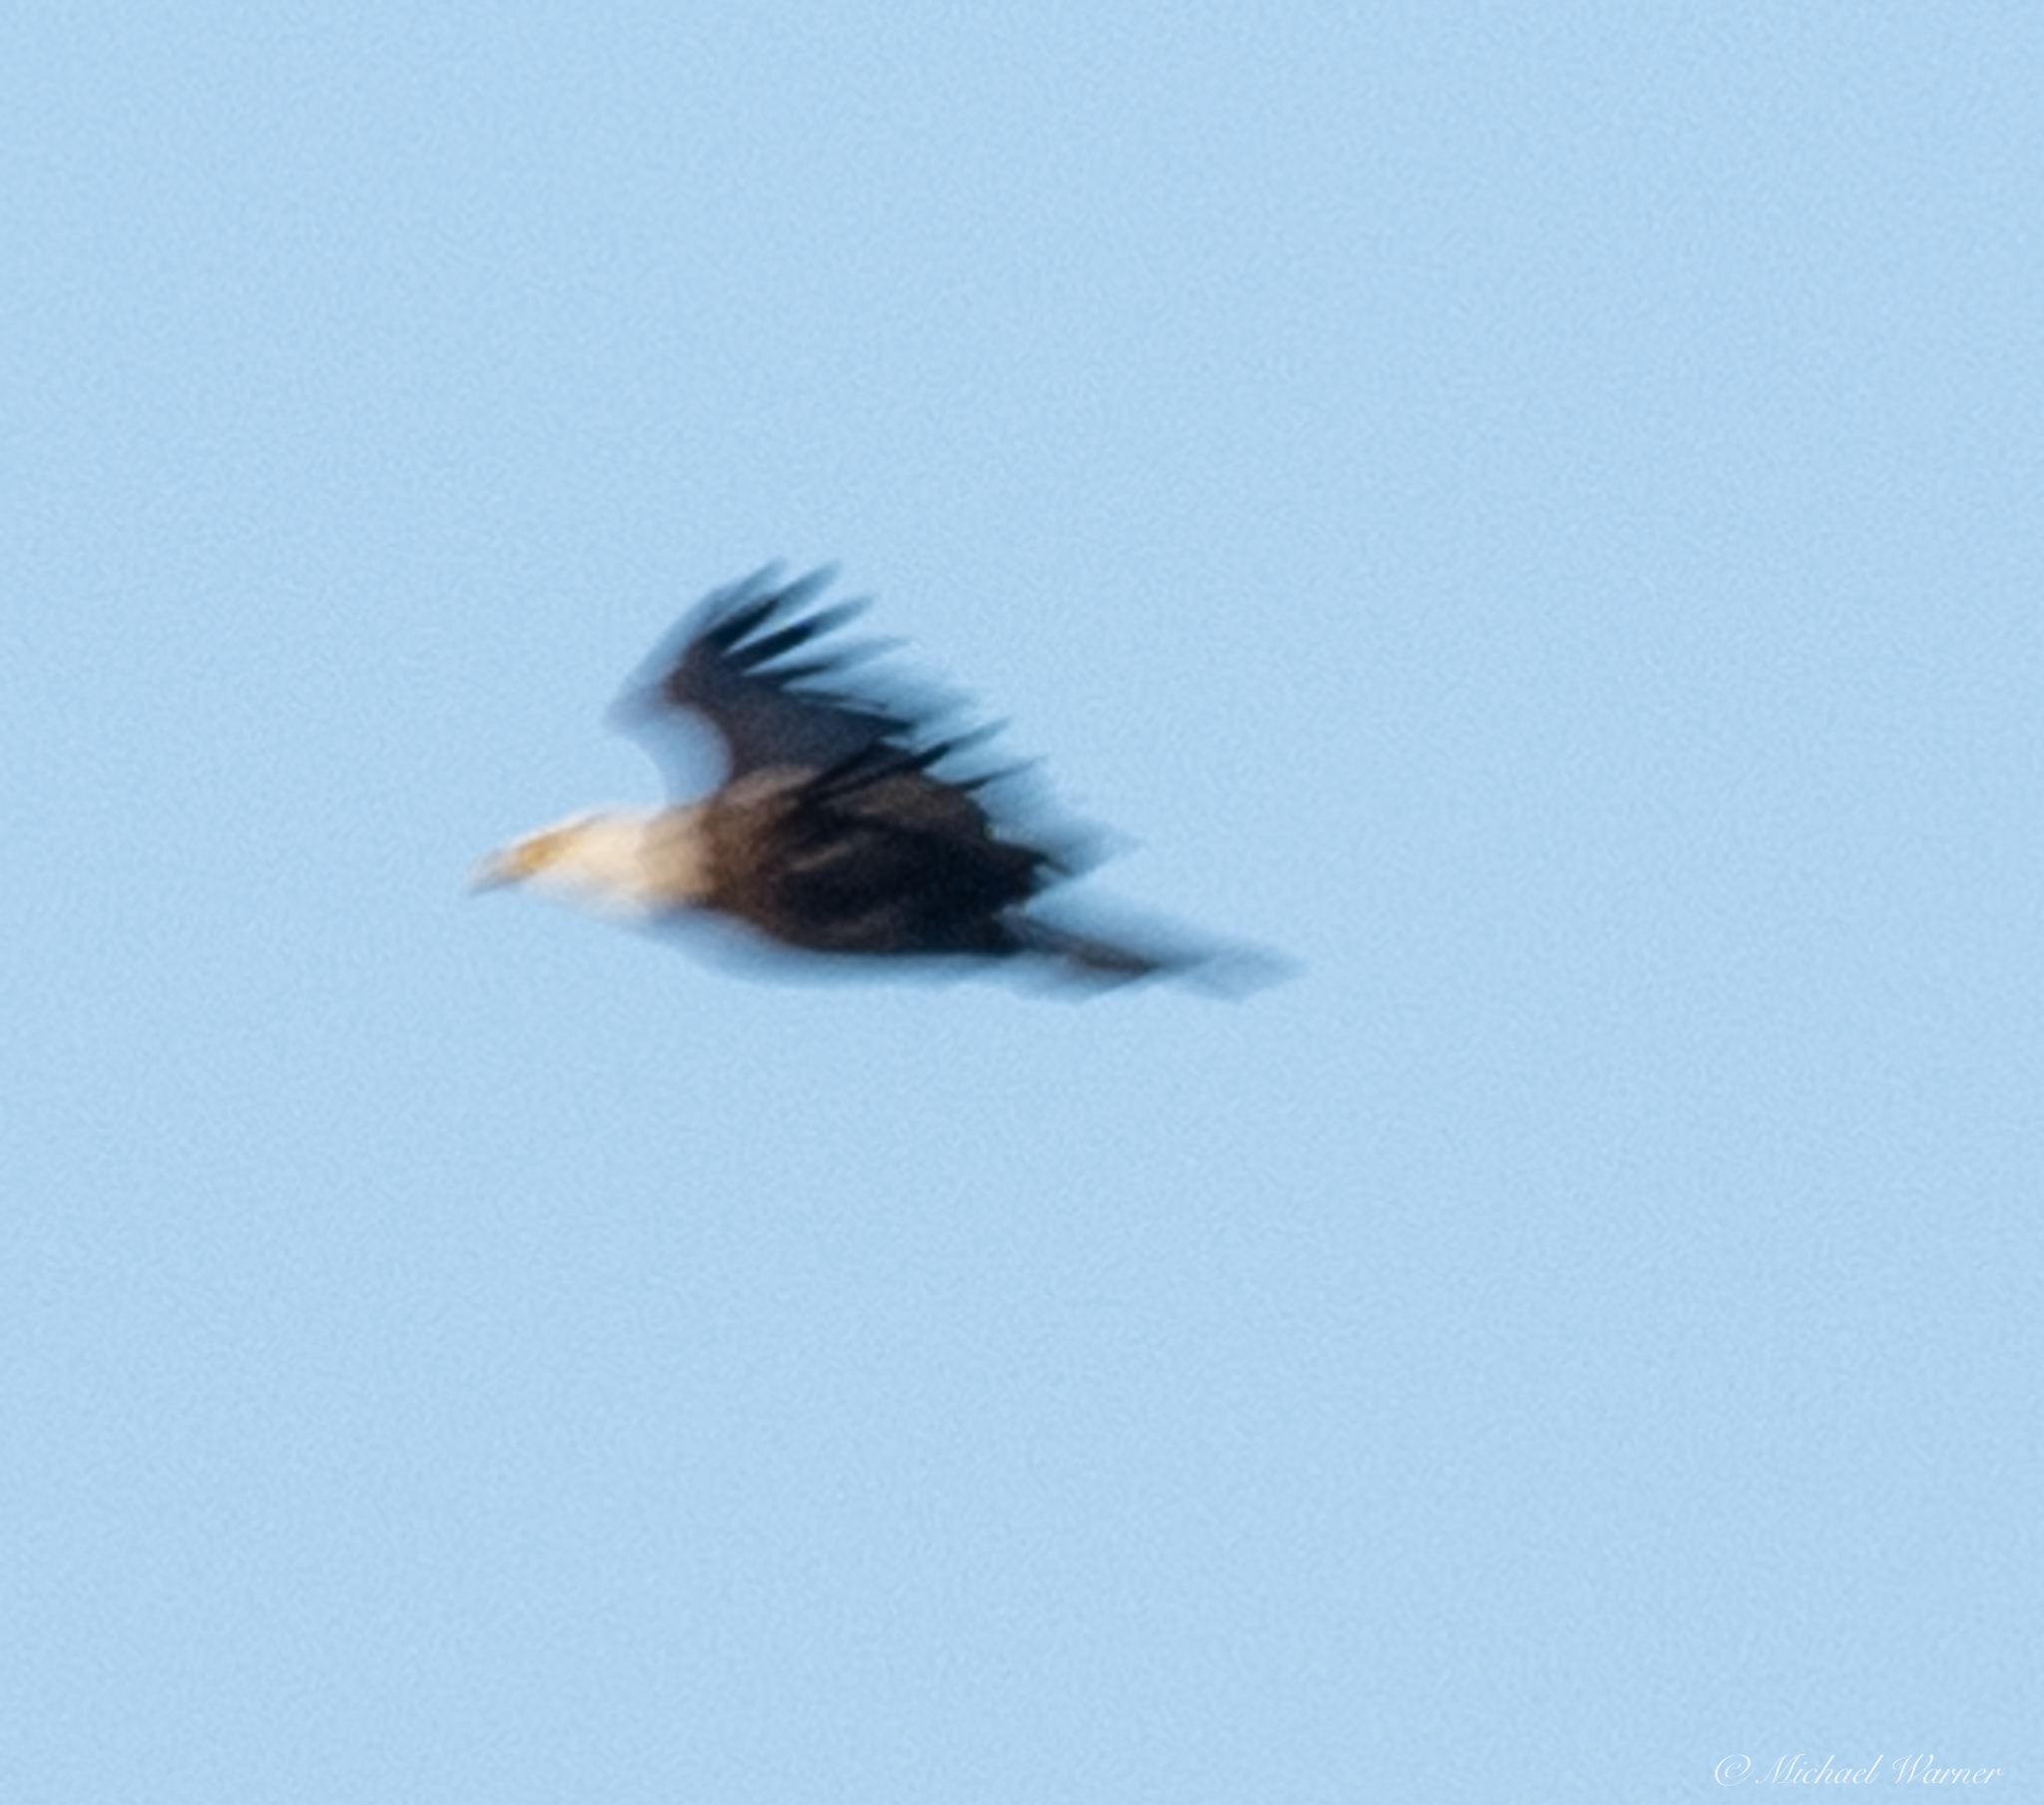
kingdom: Animalia
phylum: Chordata
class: Aves
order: Accipitriformes
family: Accipitridae
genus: Haliaeetus
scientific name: Haliaeetus leucocephalus
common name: Bald eagle
